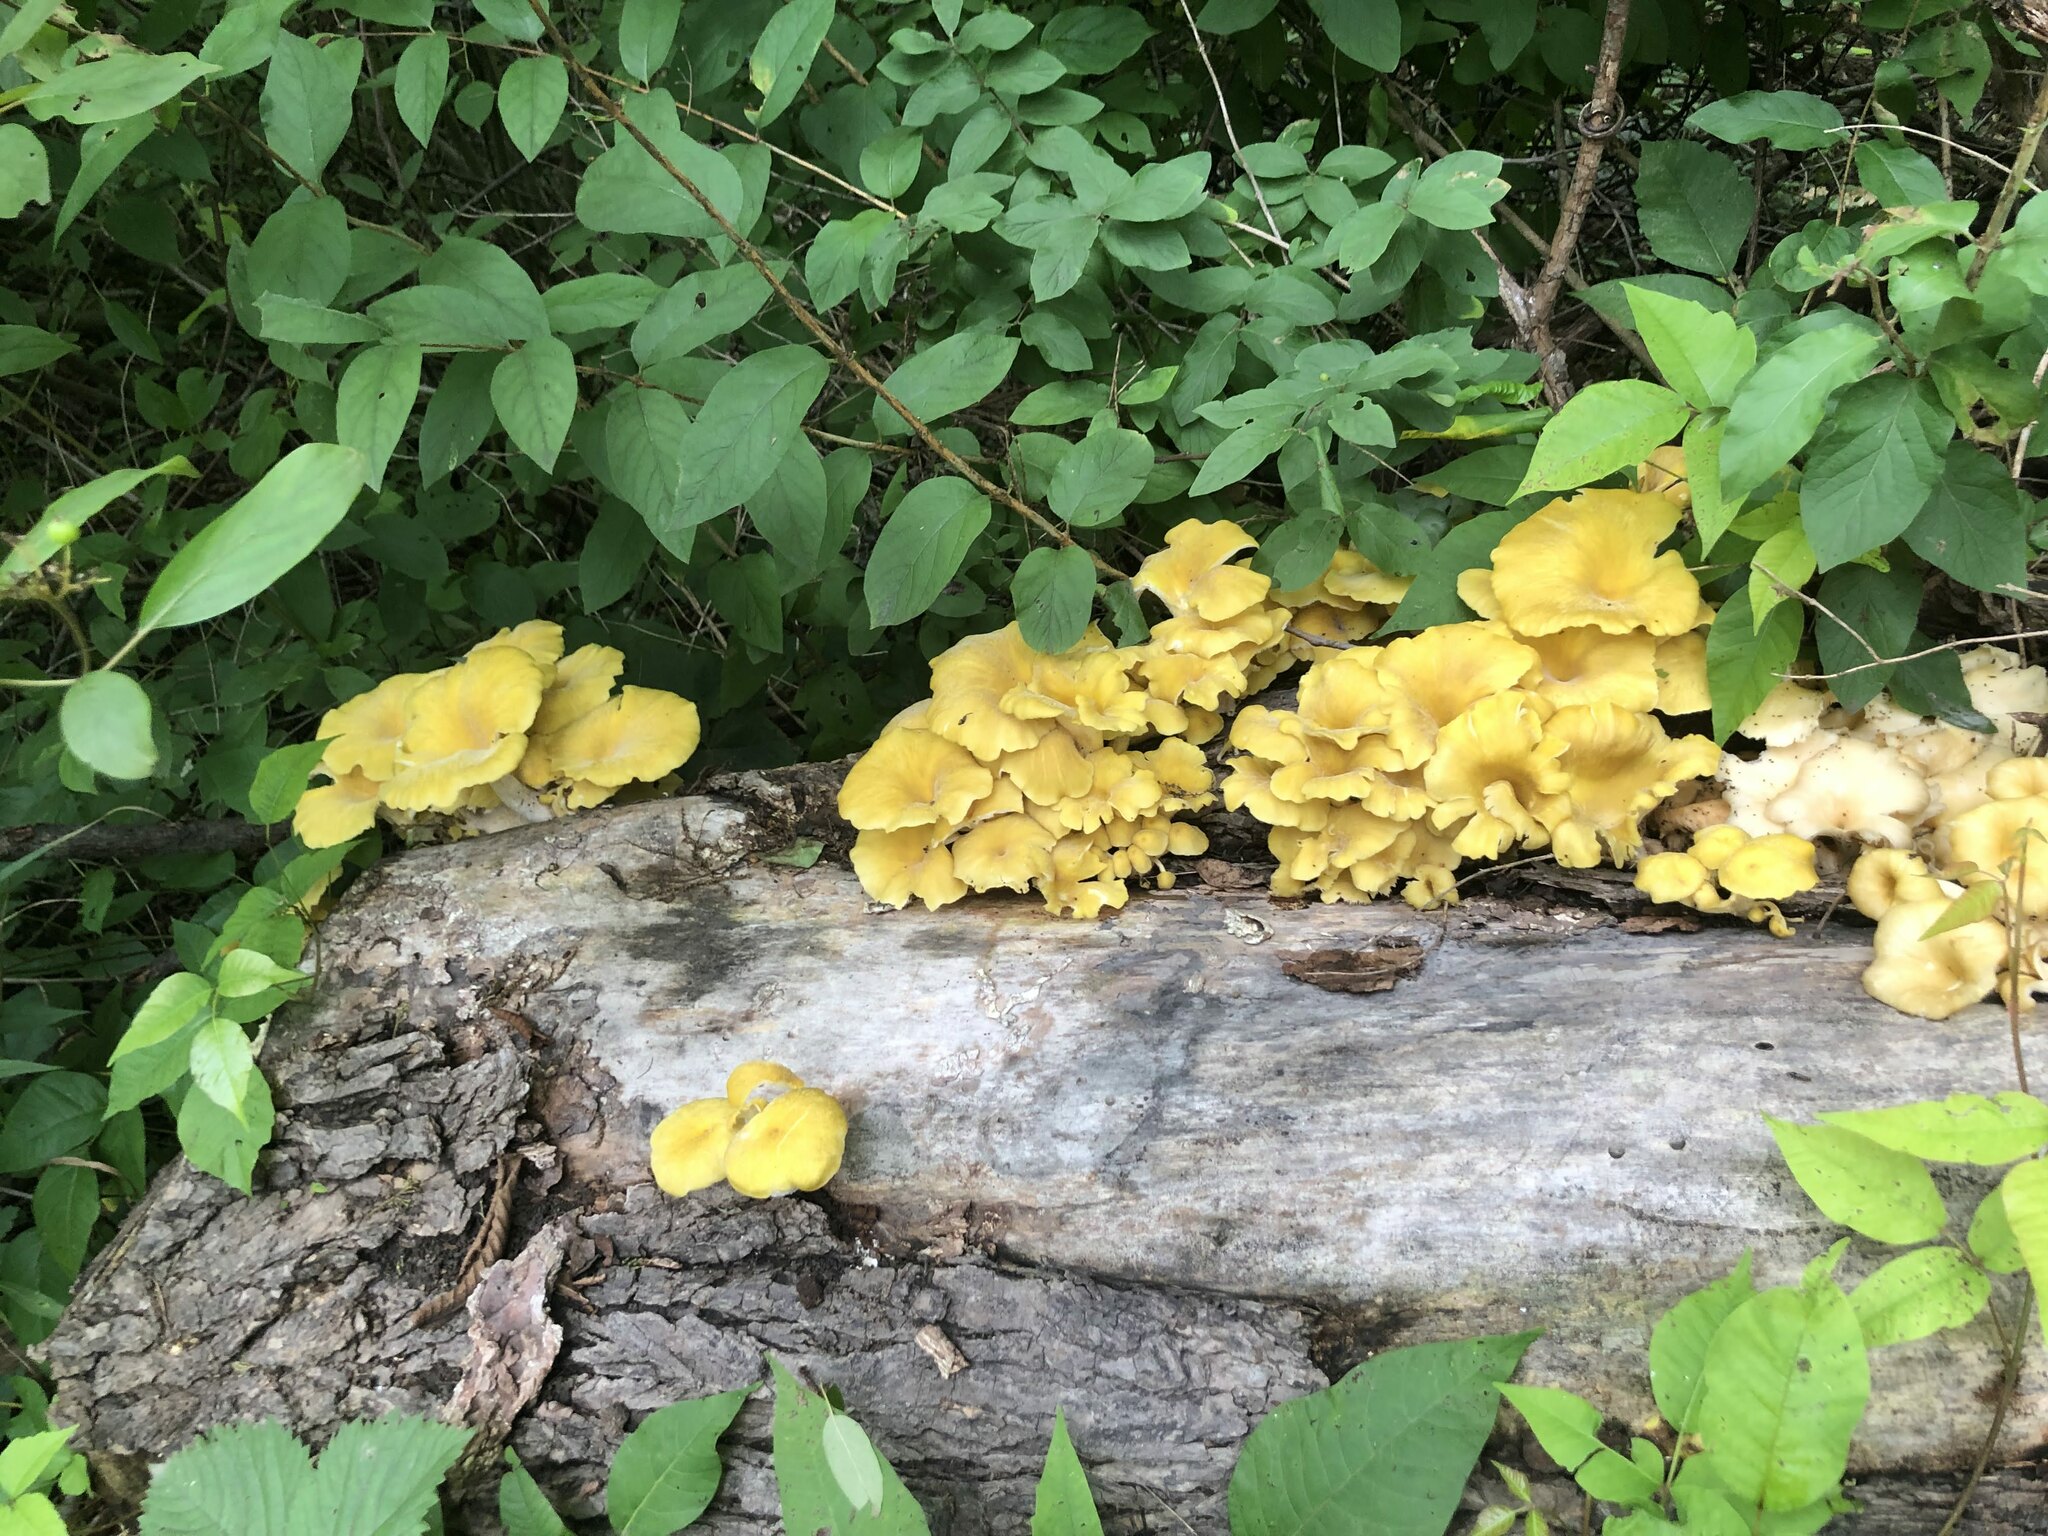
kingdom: Fungi
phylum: Basidiomycota
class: Agaricomycetes
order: Agaricales
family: Pleurotaceae
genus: Pleurotus
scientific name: Pleurotus citrinopileatus
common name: Golden oyster mushroom
